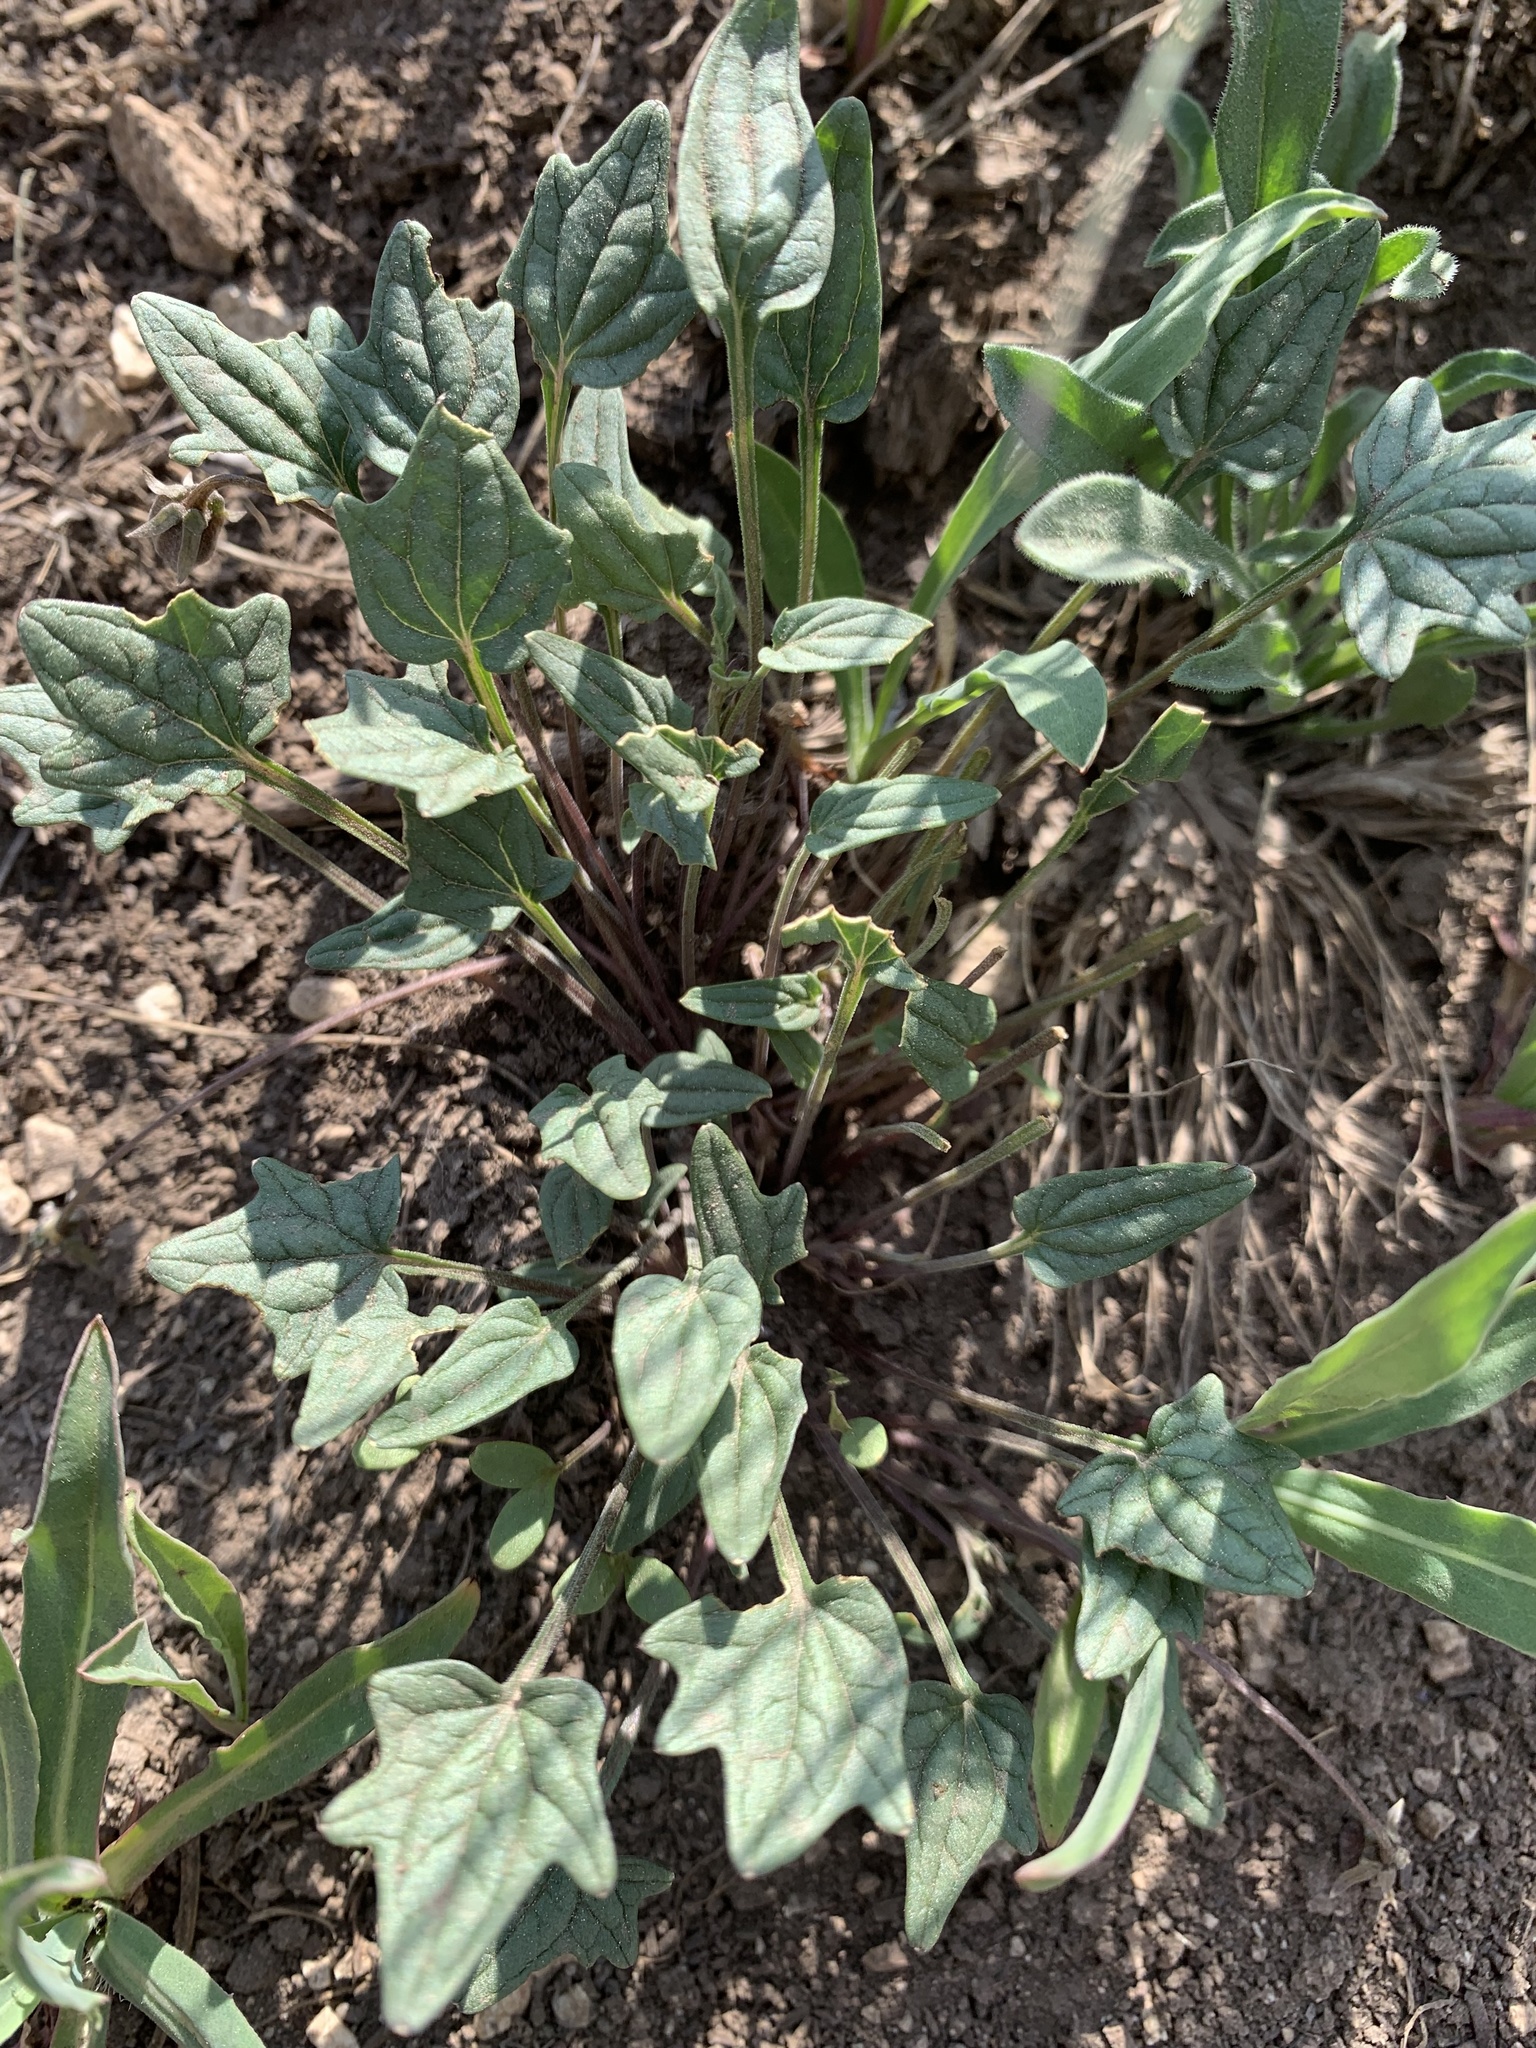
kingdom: Plantae
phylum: Tracheophyta
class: Magnoliopsida
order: Malpighiales
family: Violaceae
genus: Viola
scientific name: Viola purpurea
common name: Pine violet
